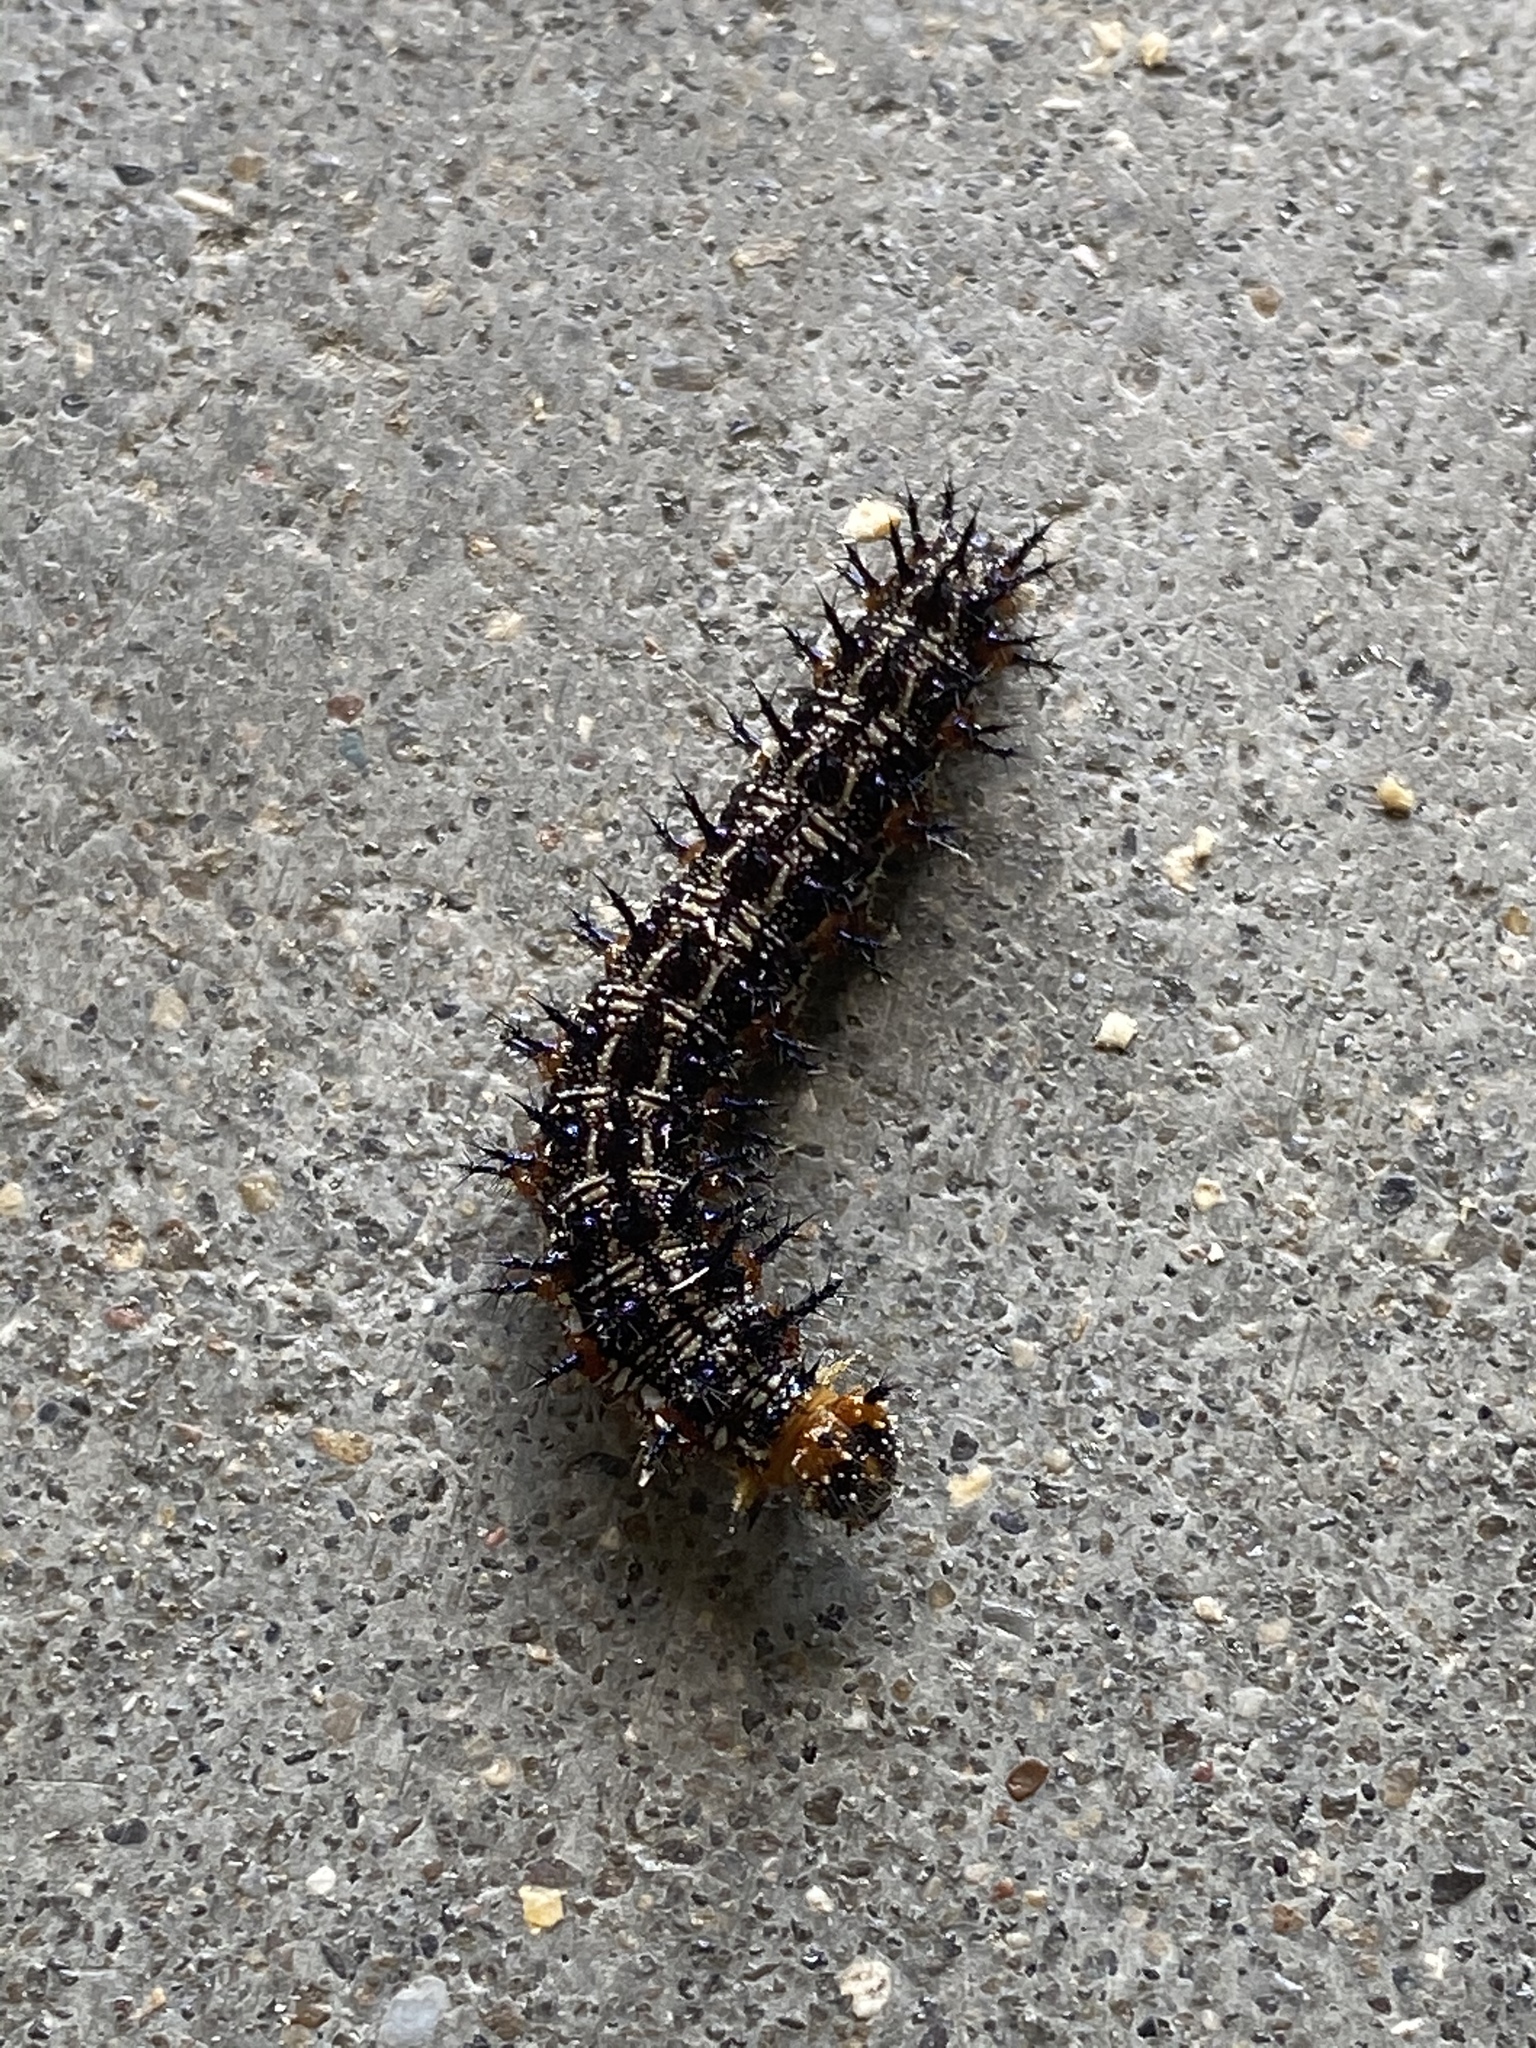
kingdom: Animalia
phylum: Arthropoda
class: Insecta
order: Lepidoptera
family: Nymphalidae
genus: Junonia
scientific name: Junonia coenia
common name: Common buckeye
